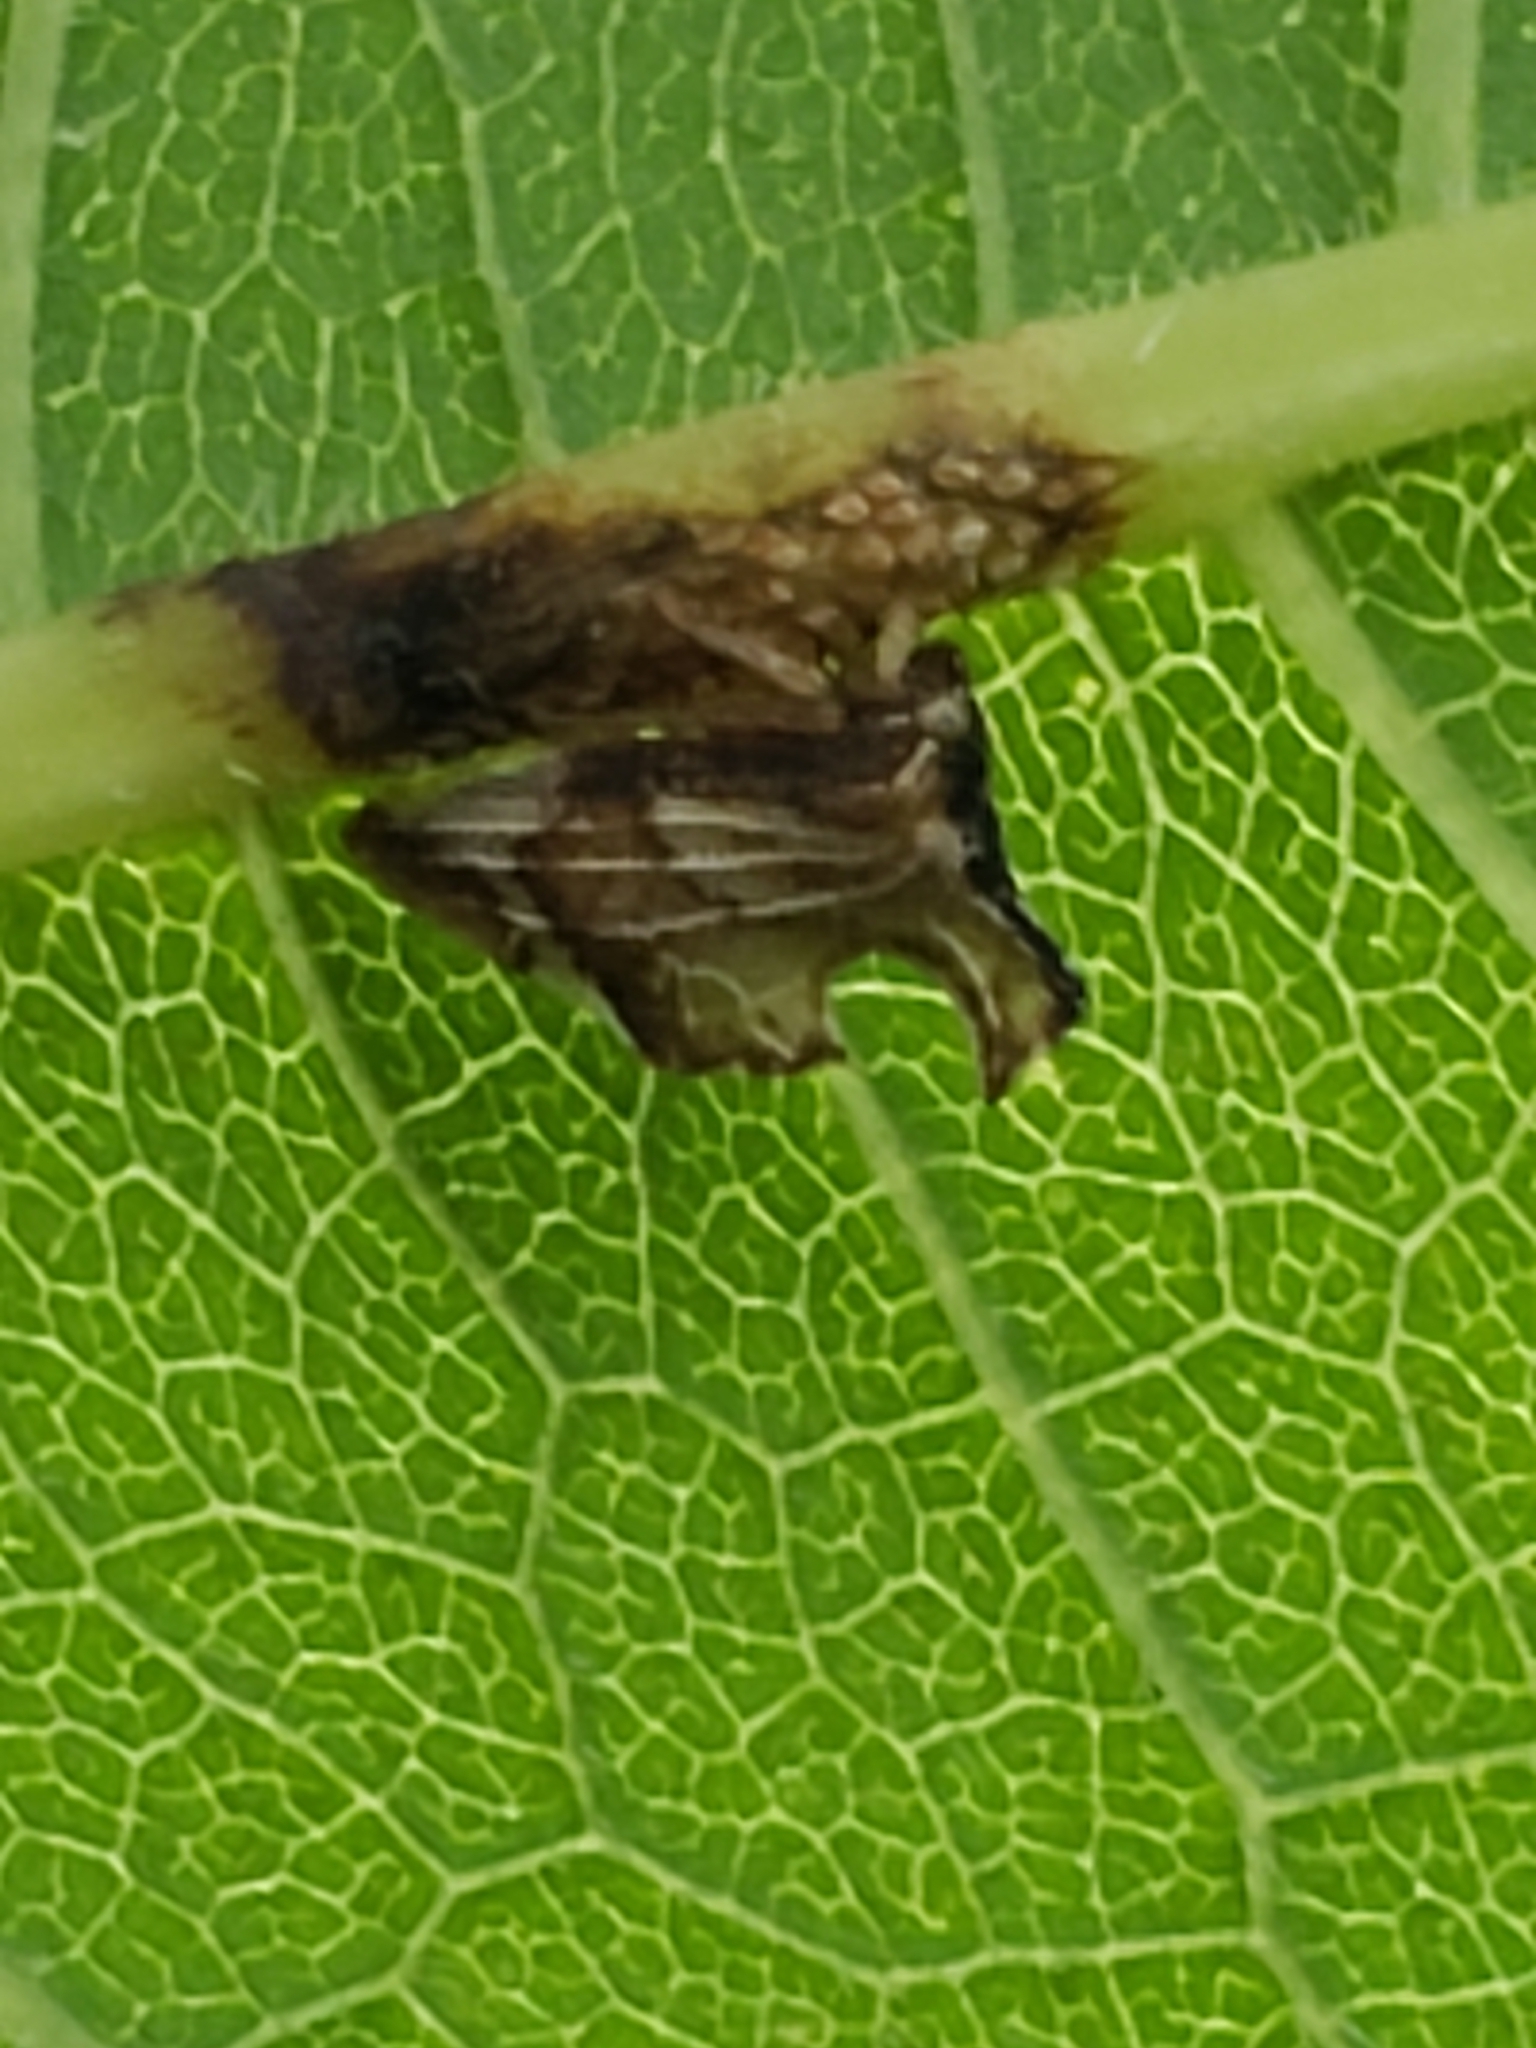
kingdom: Animalia
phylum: Arthropoda
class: Insecta
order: Hemiptera
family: Membracidae
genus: Entylia
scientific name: Entylia carinata
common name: Keeled treehopper
